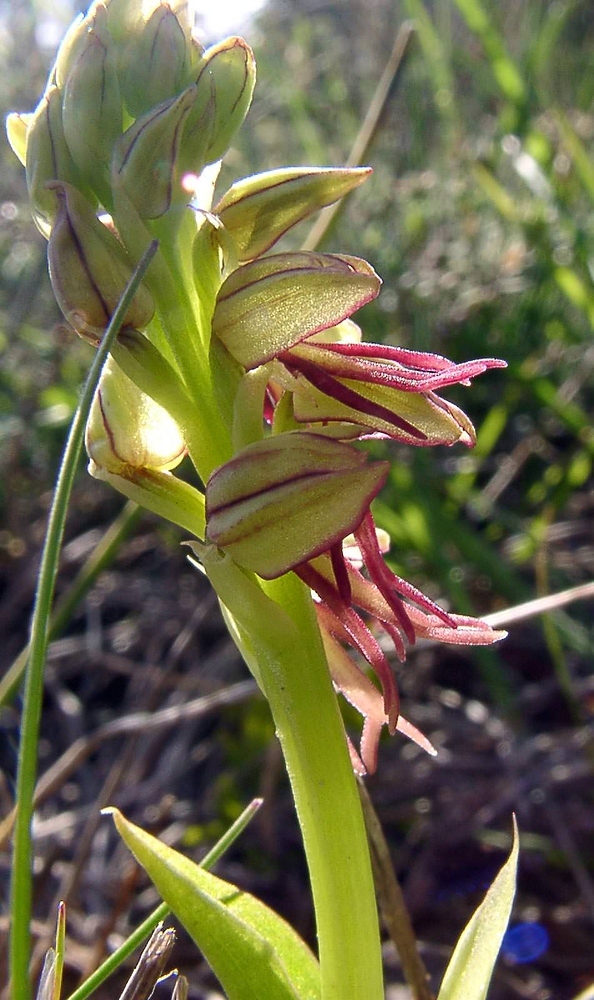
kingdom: Plantae
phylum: Tracheophyta
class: Liliopsida
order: Asparagales
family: Orchidaceae
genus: Orchis
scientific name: Orchis anthropophora
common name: Man orchid
